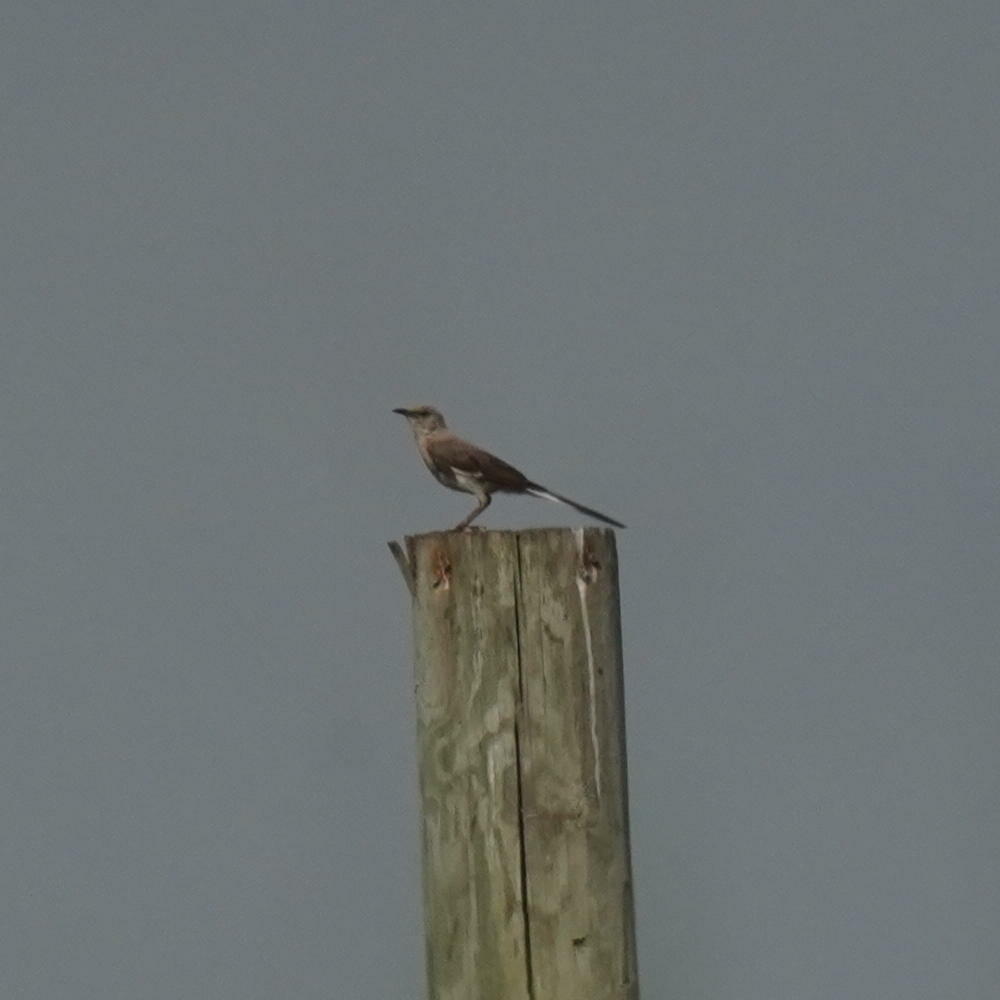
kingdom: Animalia
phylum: Chordata
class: Aves
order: Passeriformes
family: Mimidae
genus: Mimus
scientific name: Mimus polyglottos
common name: Northern mockingbird
